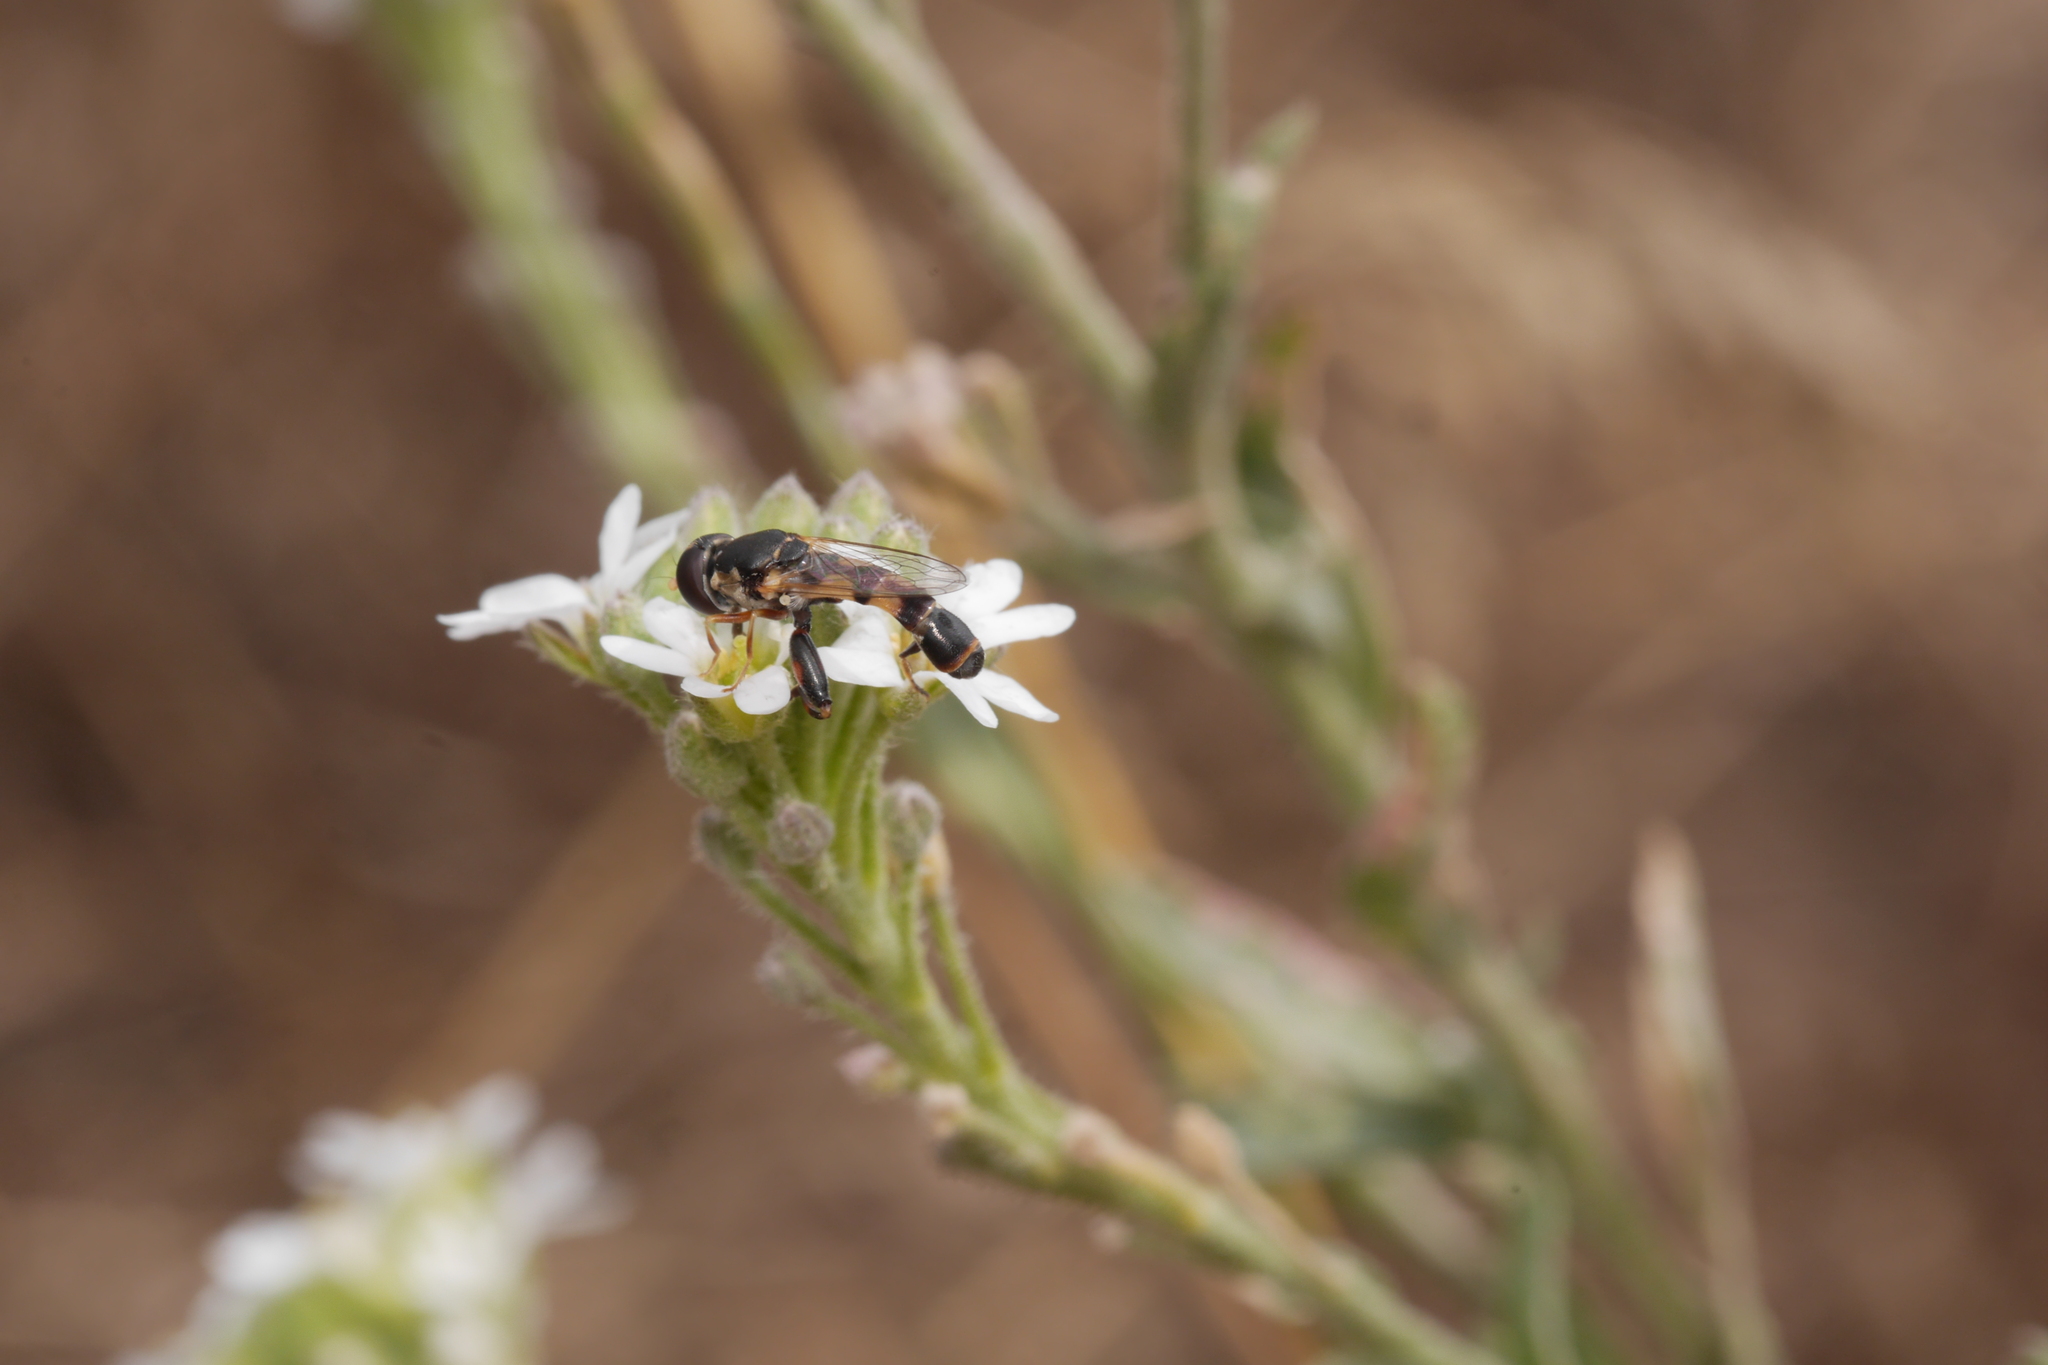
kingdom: Animalia
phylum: Arthropoda
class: Insecta
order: Diptera
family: Syrphidae
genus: Syritta
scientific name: Syritta pipiens
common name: Hover fly
